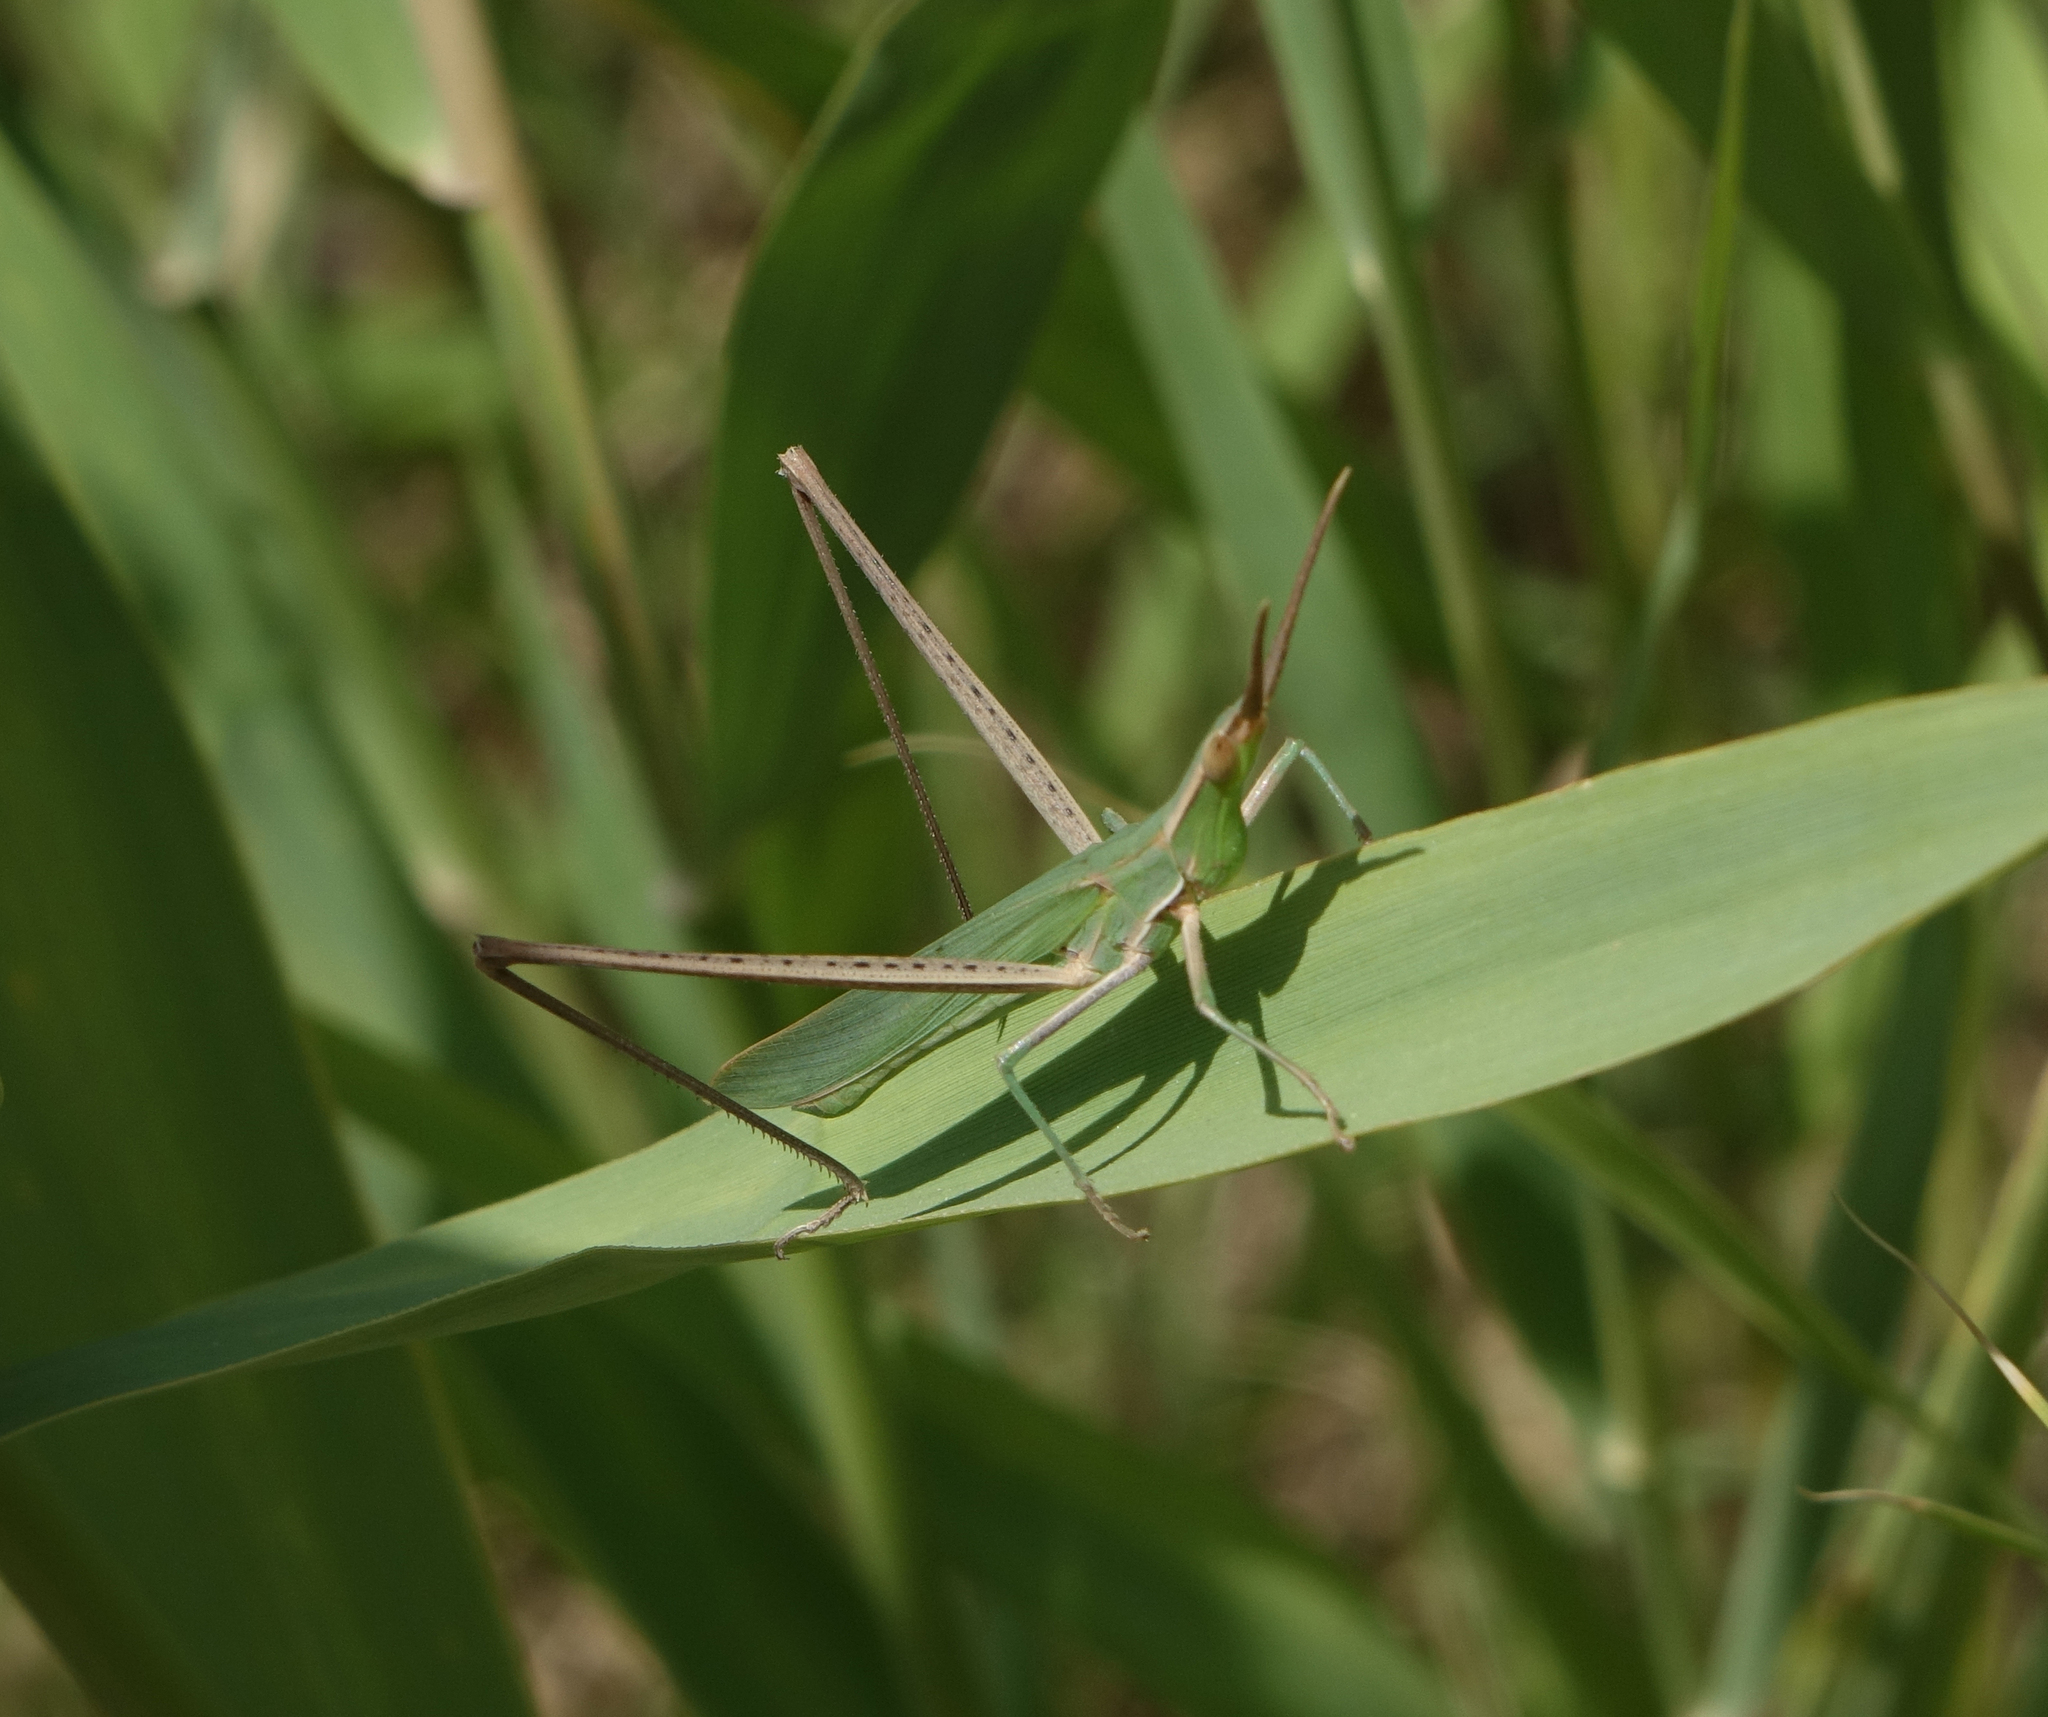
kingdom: Animalia
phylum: Arthropoda
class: Insecta
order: Orthoptera
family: Acrididae
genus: Acrida
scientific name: Acrida ungarica
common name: Common cone-headed grasshopper
